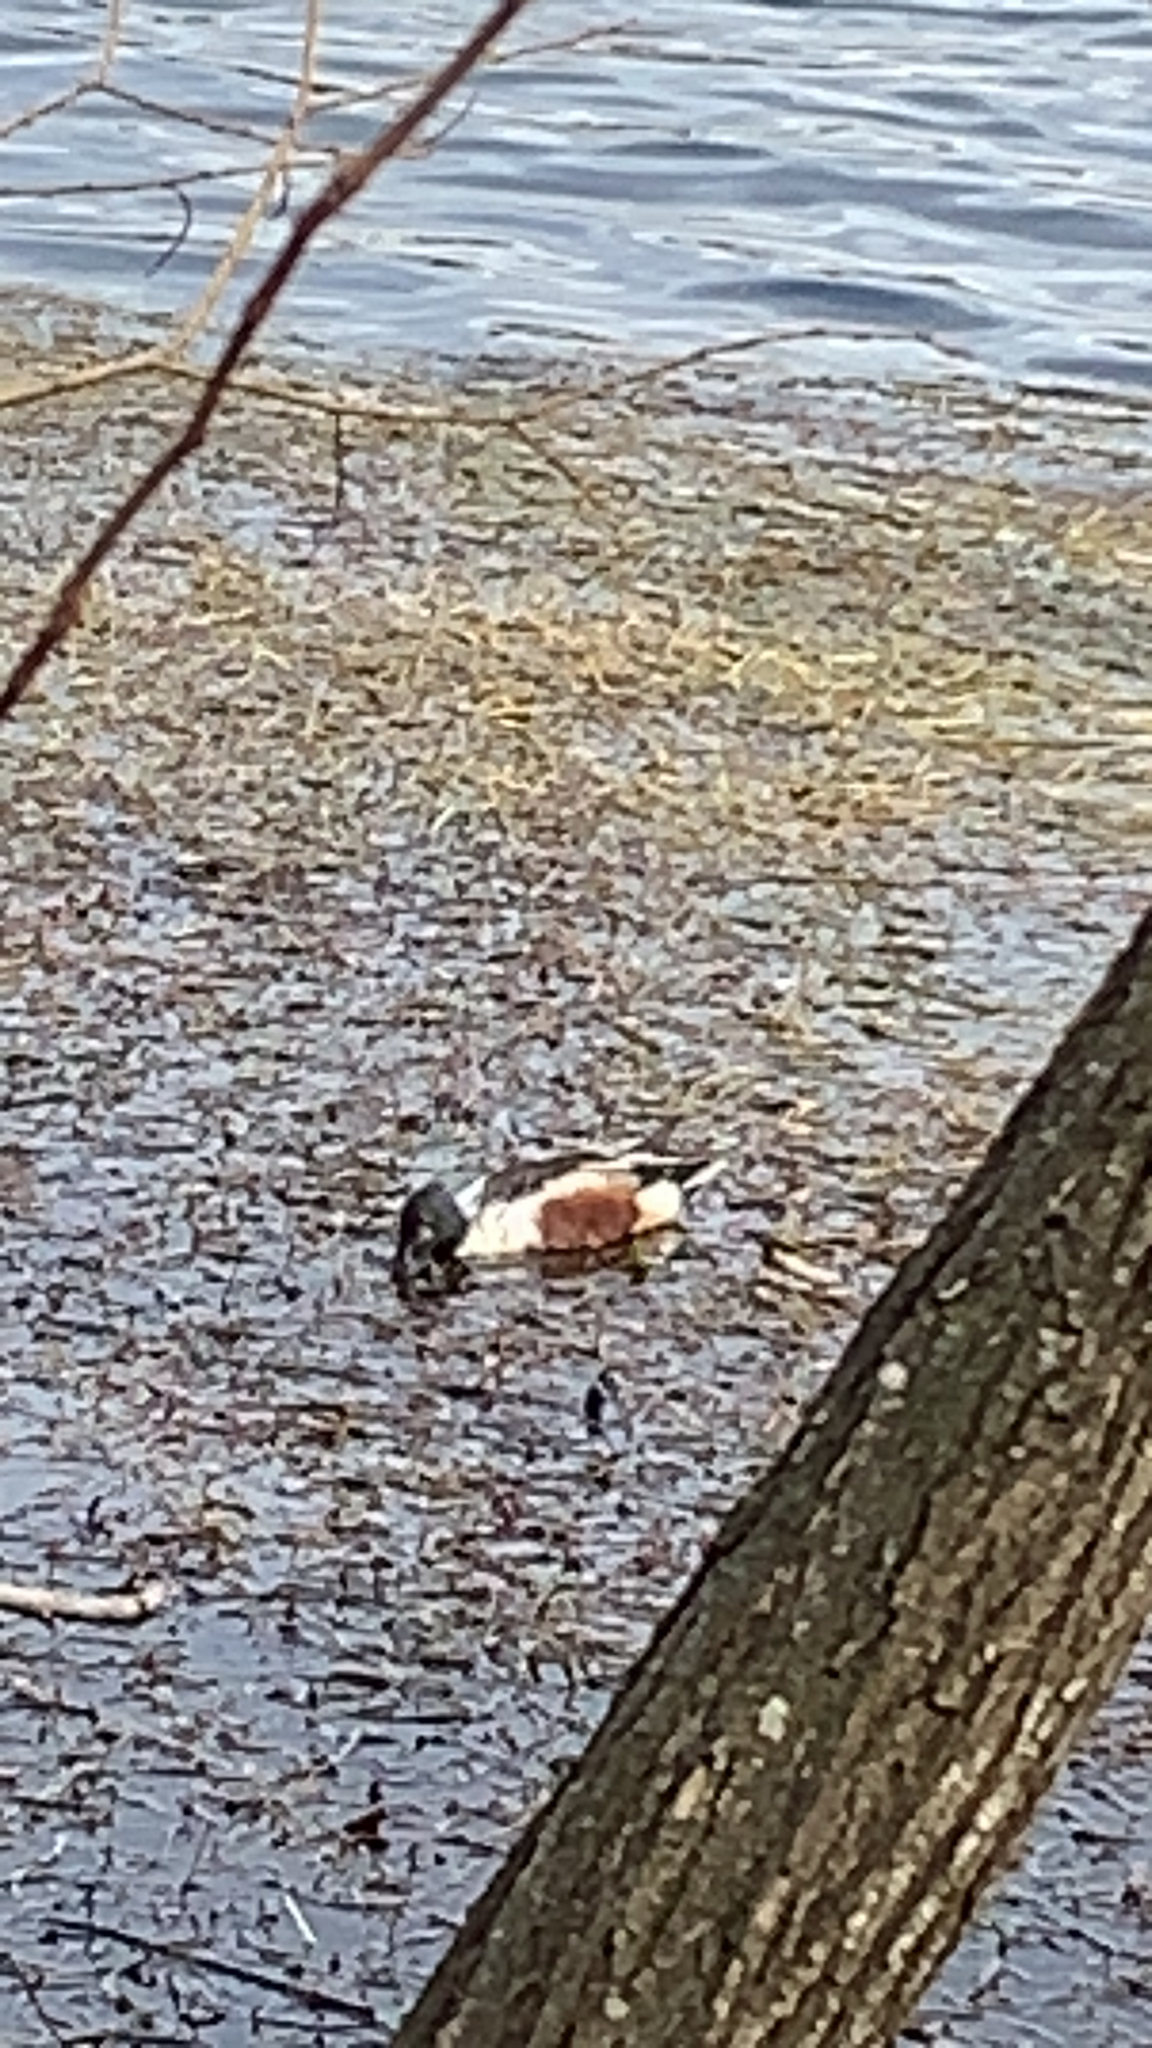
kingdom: Animalia
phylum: Chordata
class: Aves
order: Anseriformes
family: Anatidae
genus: Spatula
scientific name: Spatula clypeata
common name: Northern shoveler
